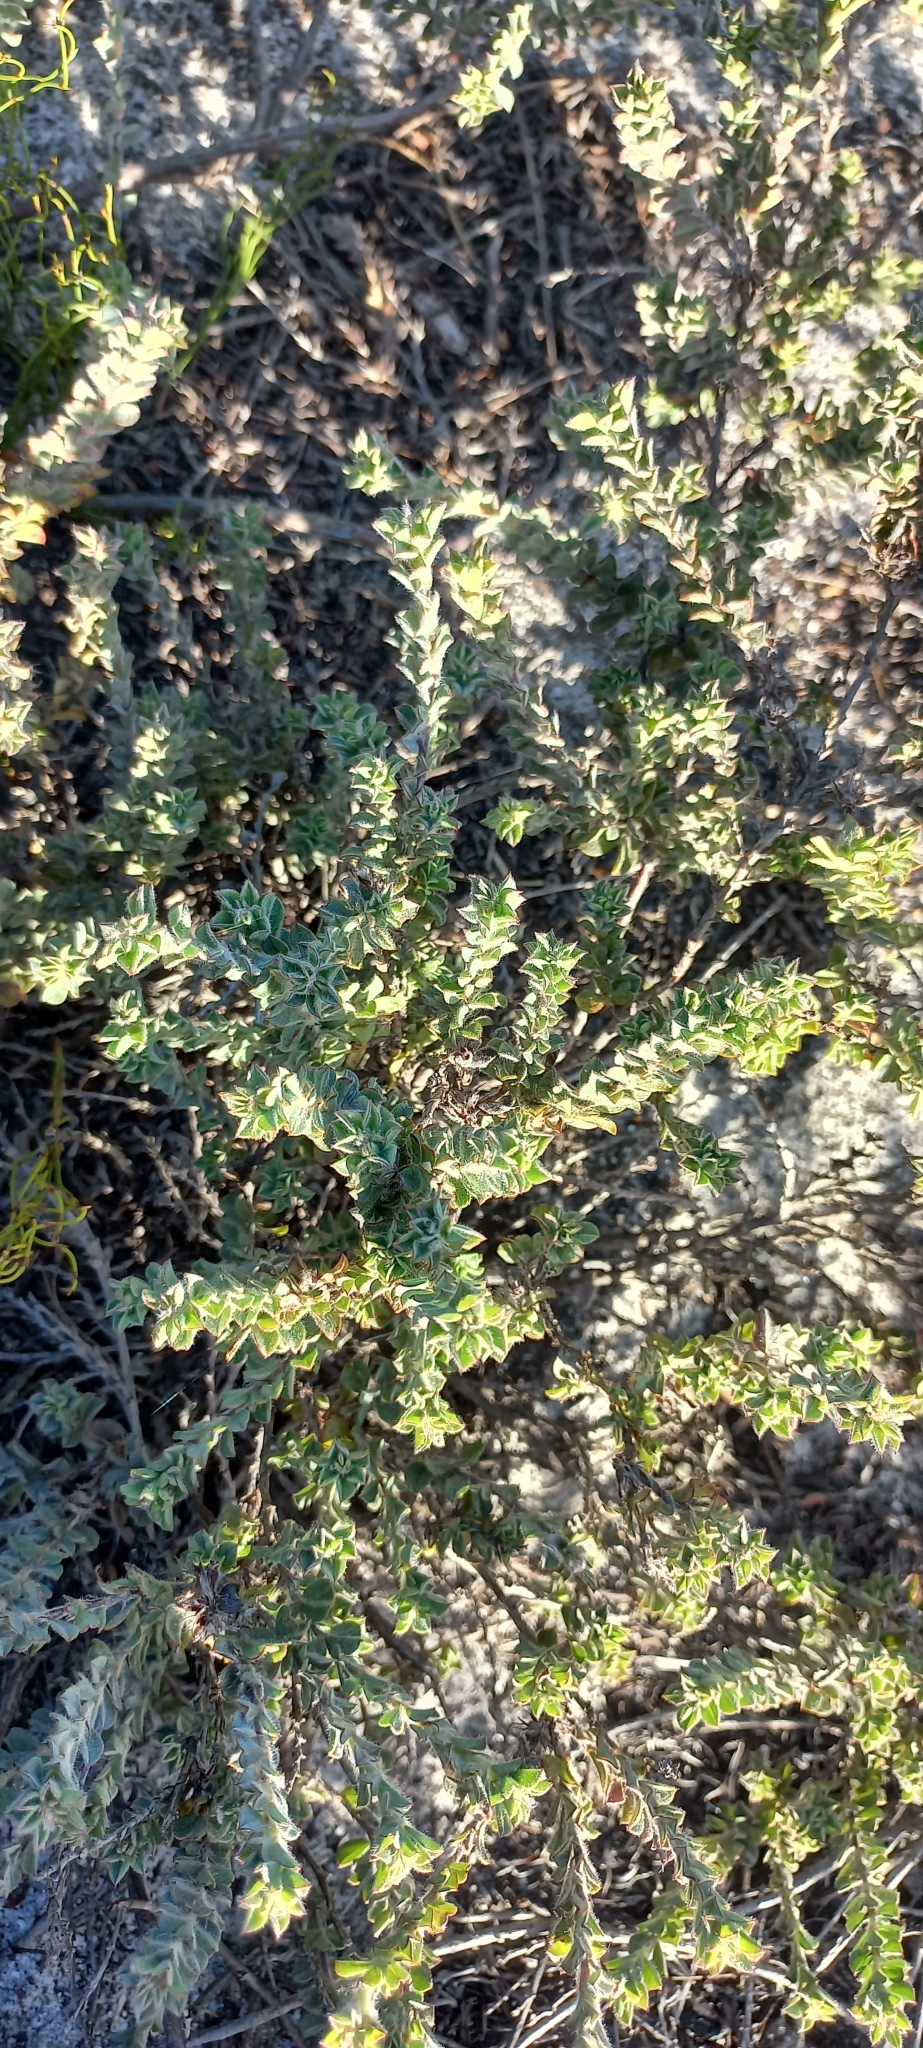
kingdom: Plantae
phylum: Tracheophyta
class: Magnoliopsida
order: Fabales
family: Fabaceae
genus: Indigofera
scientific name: Indigofera glomerata
